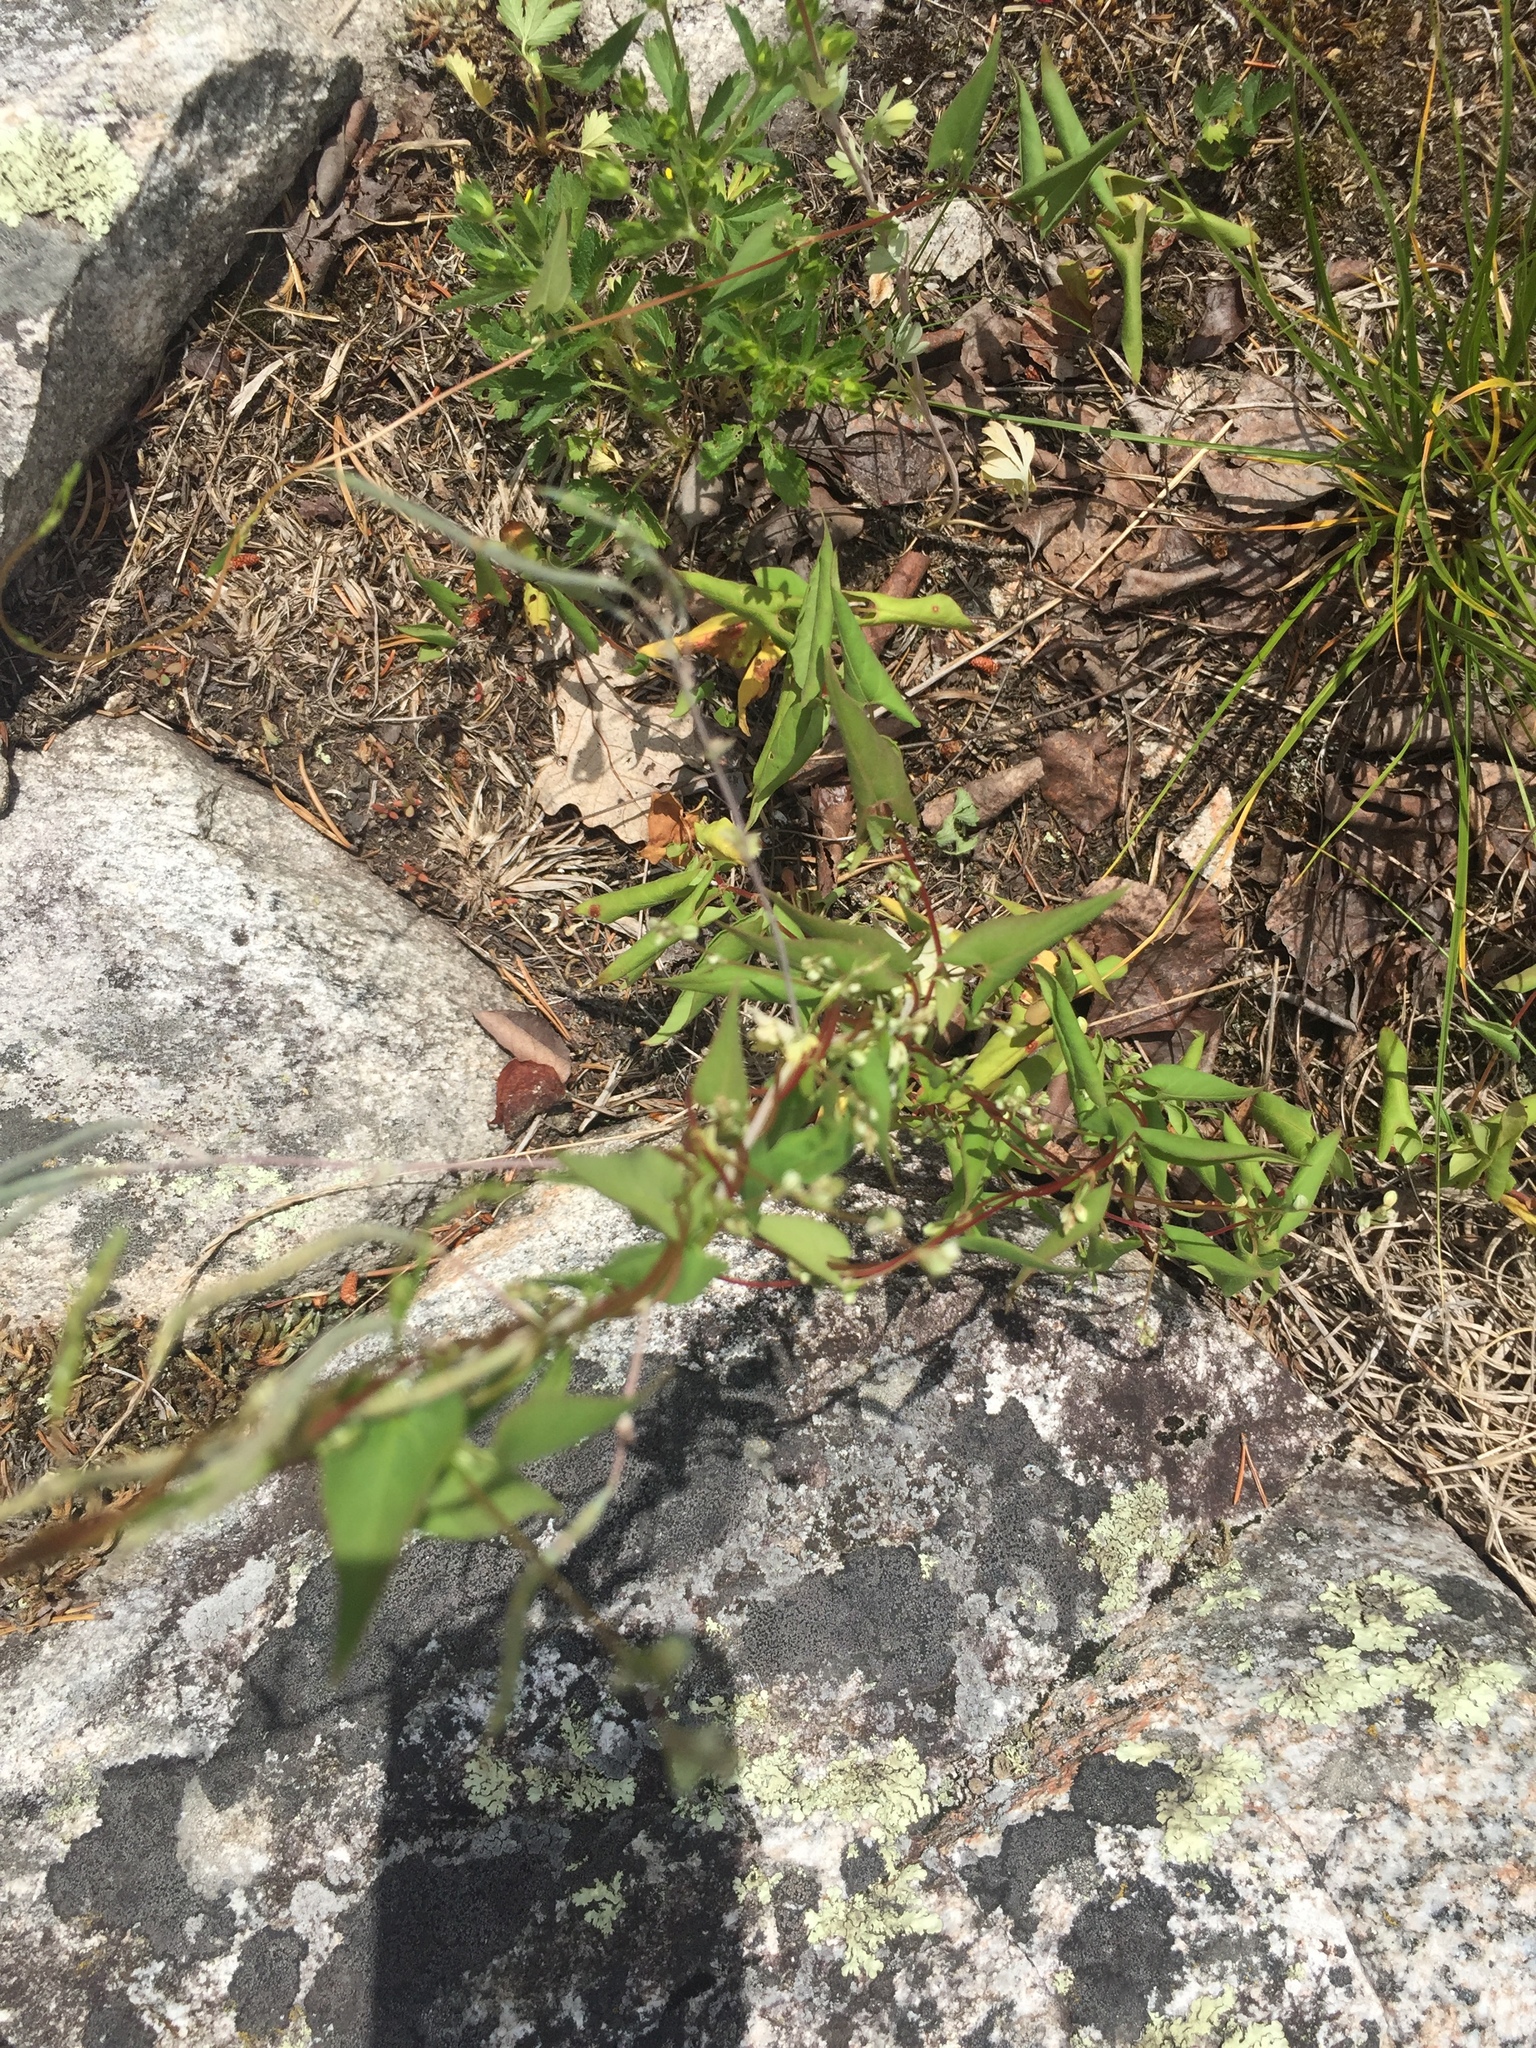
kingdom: Plantae
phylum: Tracheophyta
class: Magnoliopsida
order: Caryophyllales
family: Polygonaceae
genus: Parogonum
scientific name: Parogonum ciliinode
